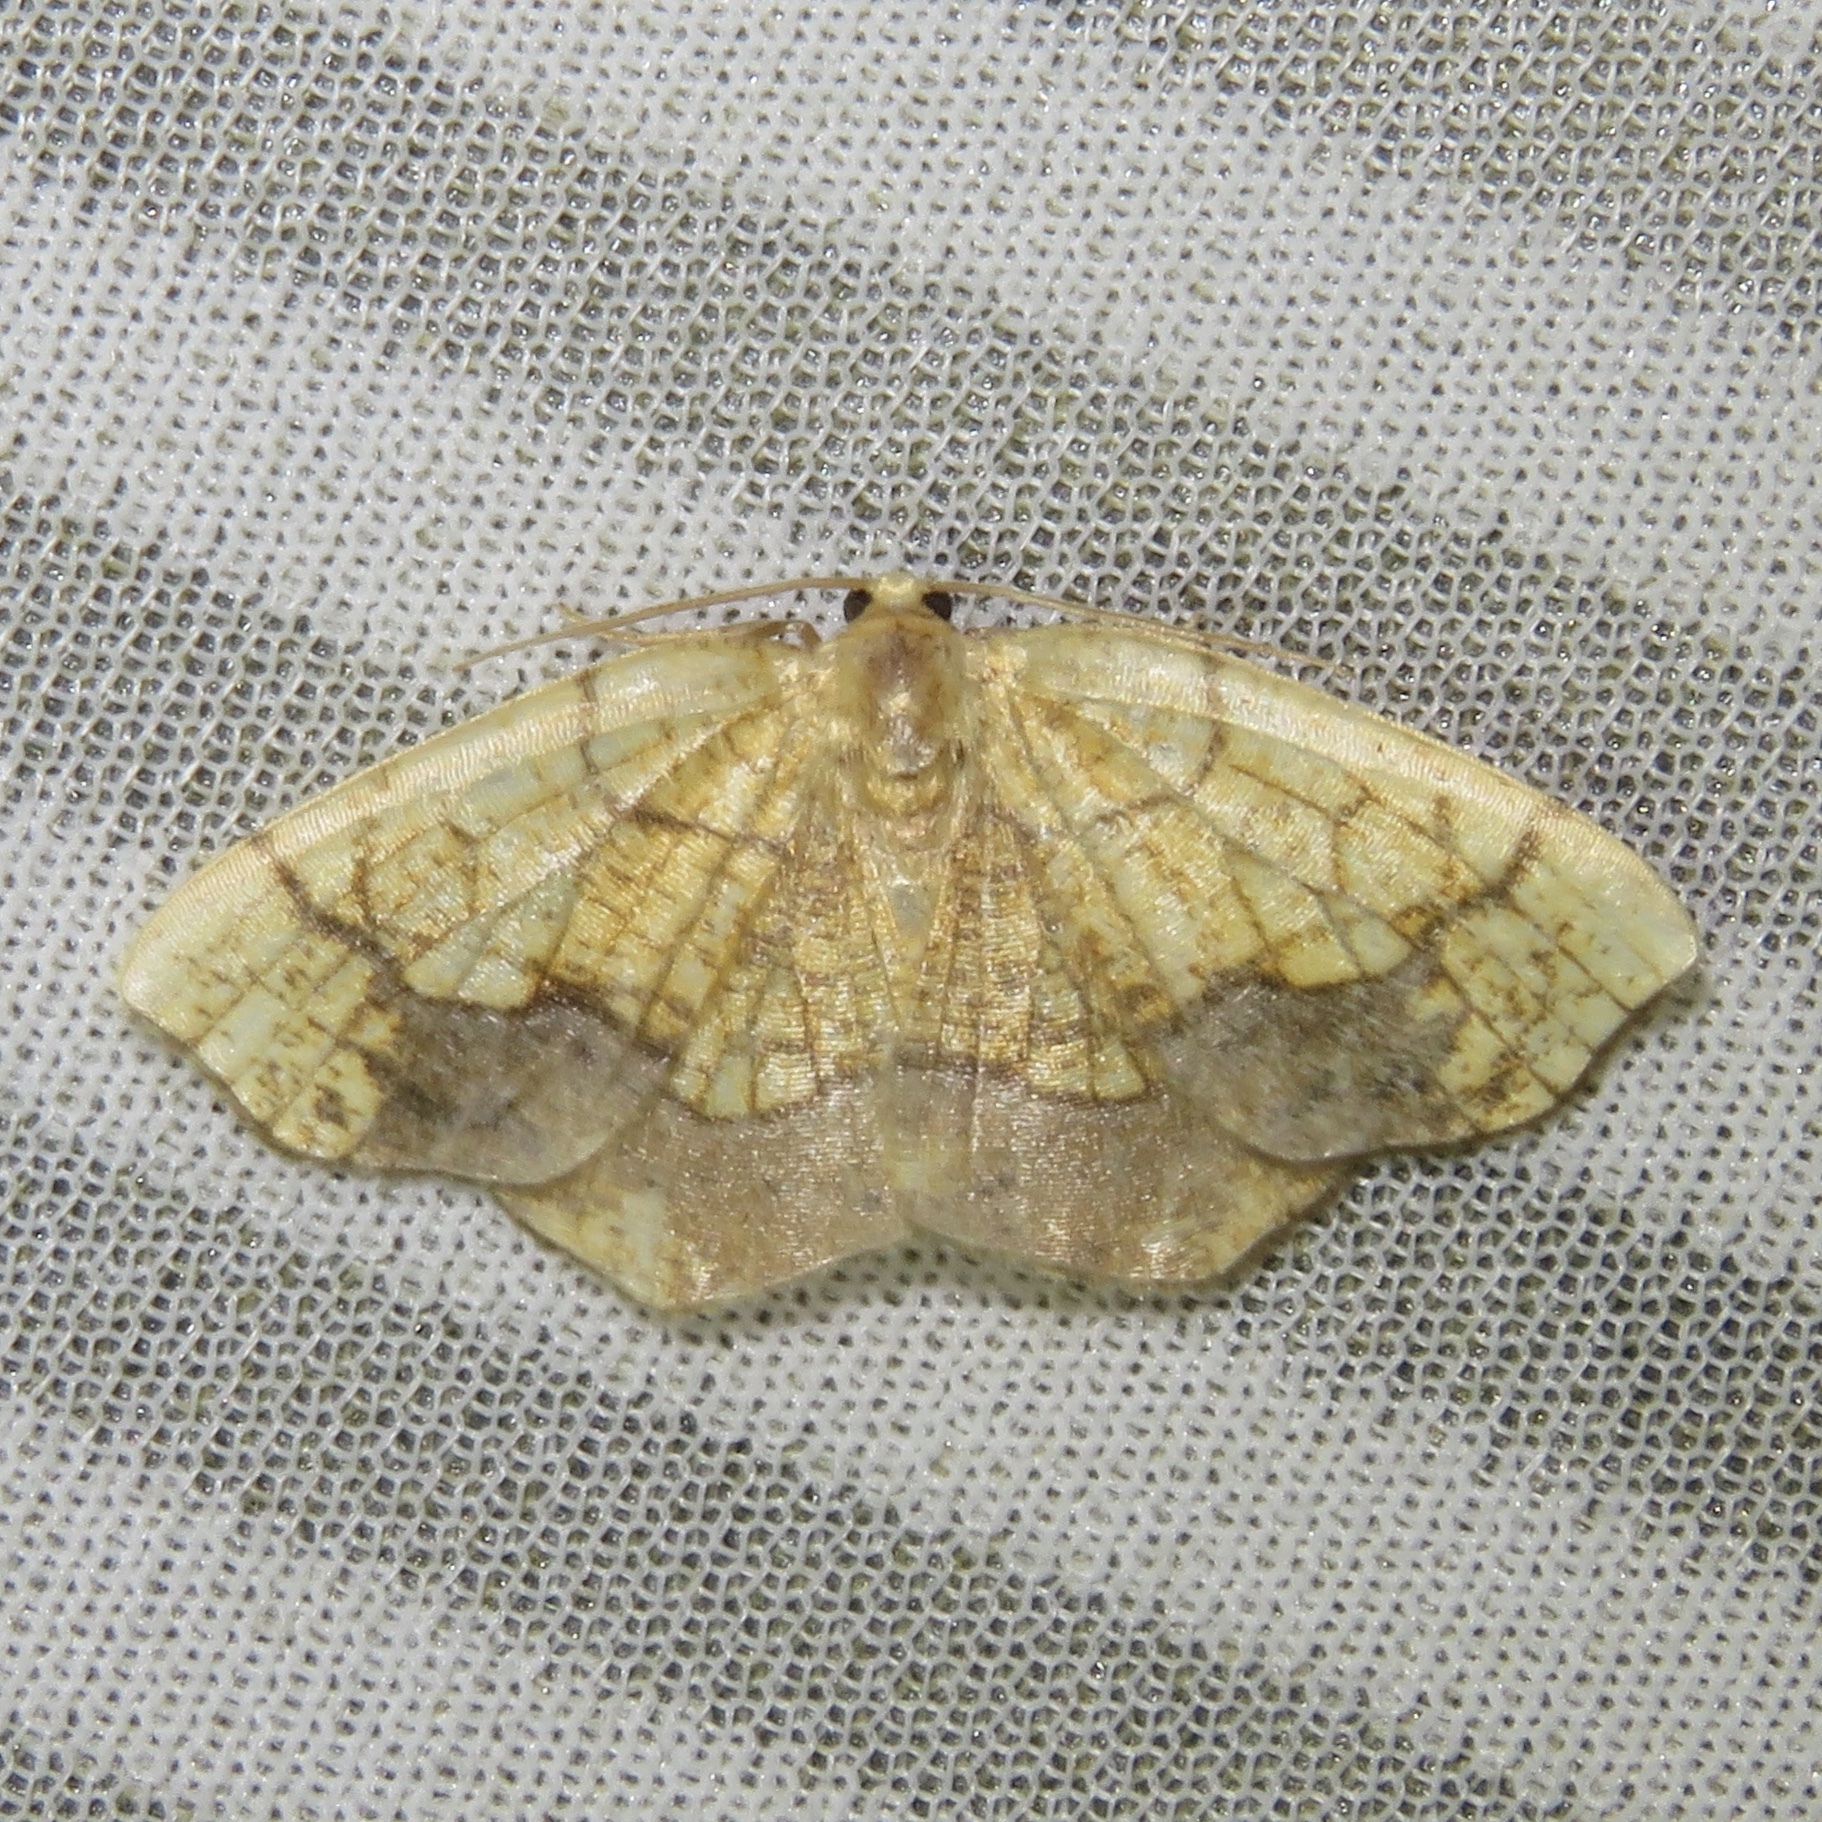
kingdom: Animalia
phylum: Arthropoda
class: Insecta
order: Lepidoptera
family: Geometridae
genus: Nematocampa
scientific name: Nematocampa resistaria
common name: Horned spanworm moth
